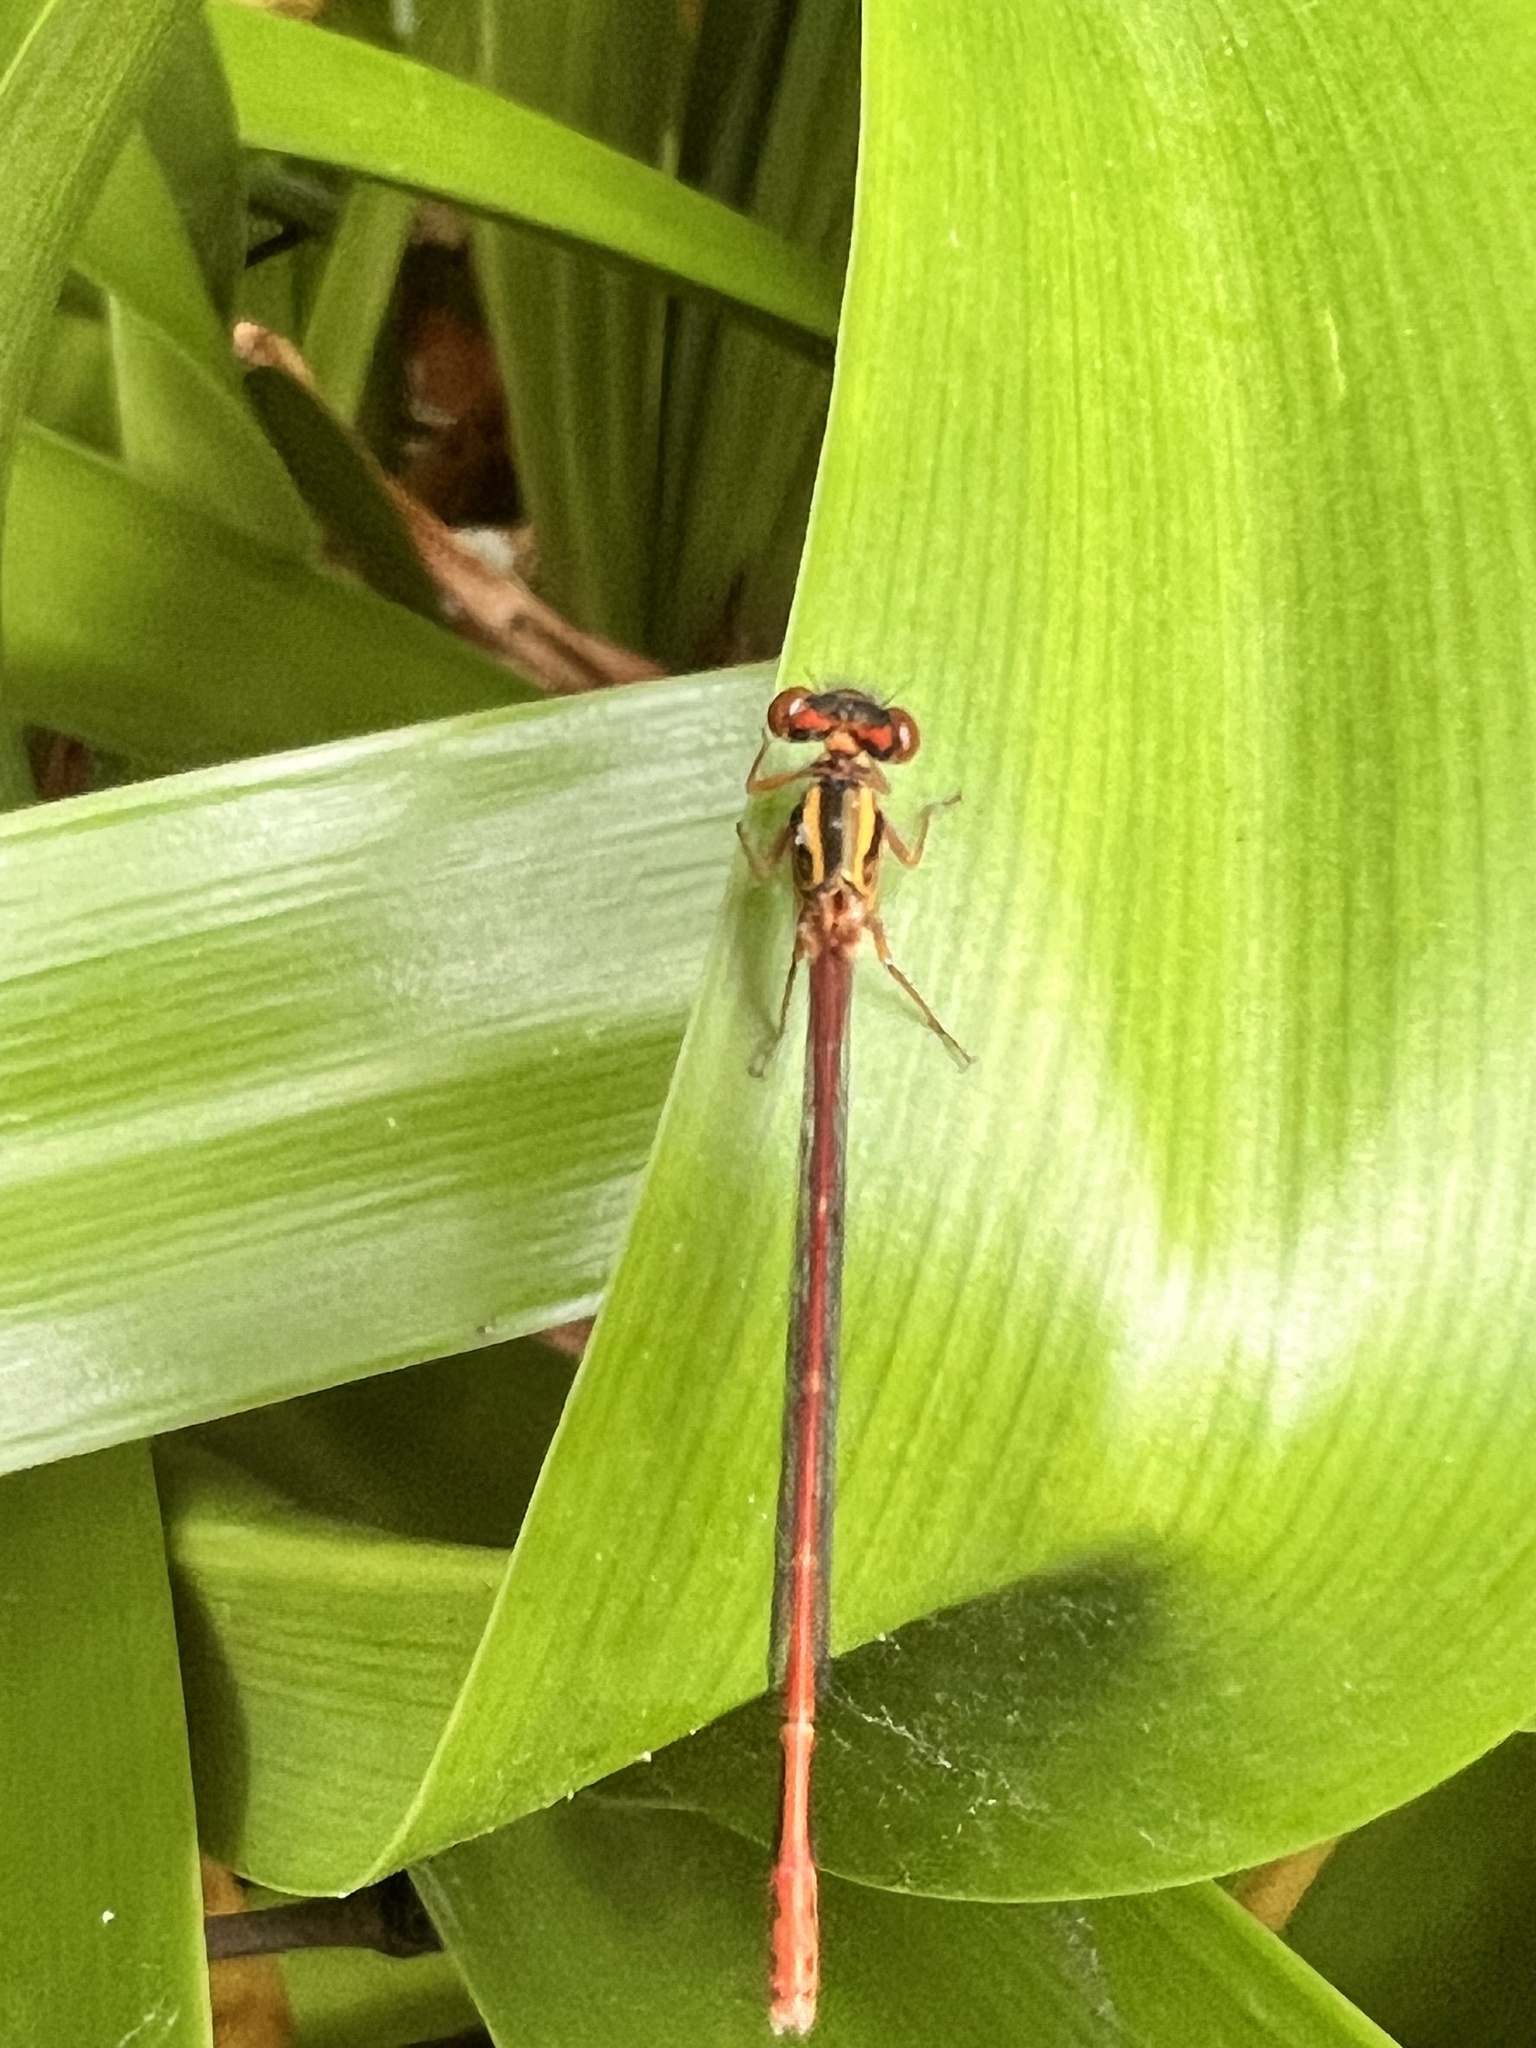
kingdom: Animalia
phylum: Arthropoda
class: Insecta
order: Odonata
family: Coenagrionidae
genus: Xanthocnemis
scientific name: Xanthocnemis zealandica
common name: Common redcoat damselfly
